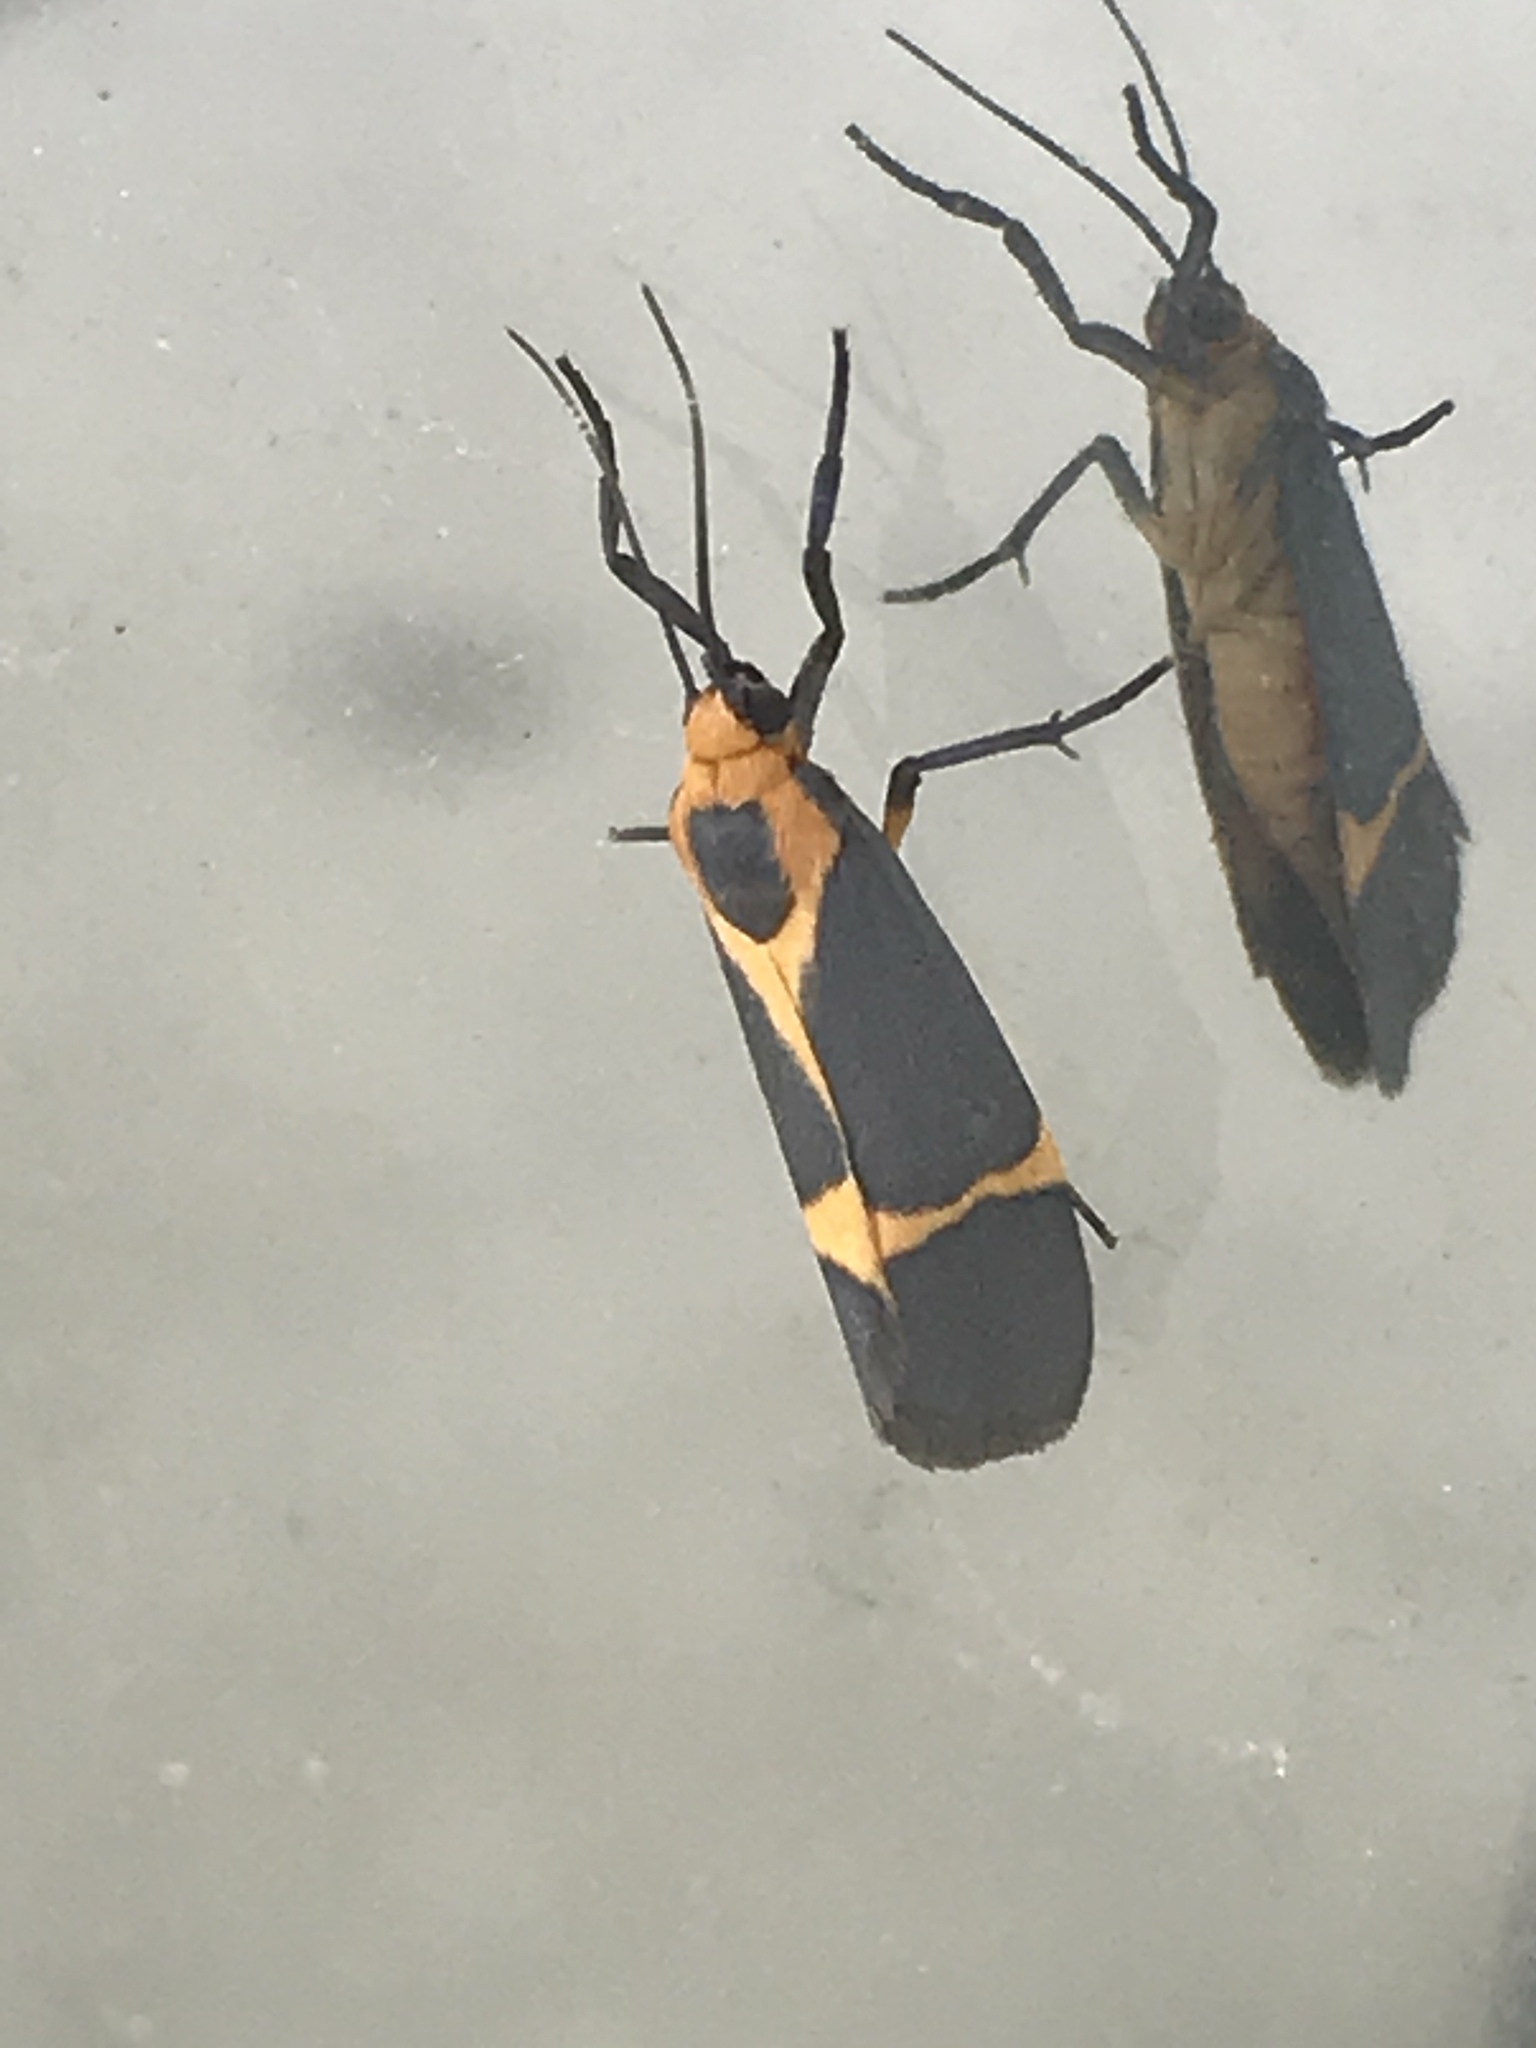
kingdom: Animalia
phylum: Arthropoda
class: Insecta
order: Lepidoptera
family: Erebidae
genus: Cisthene
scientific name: Cisthene tenuifascia
